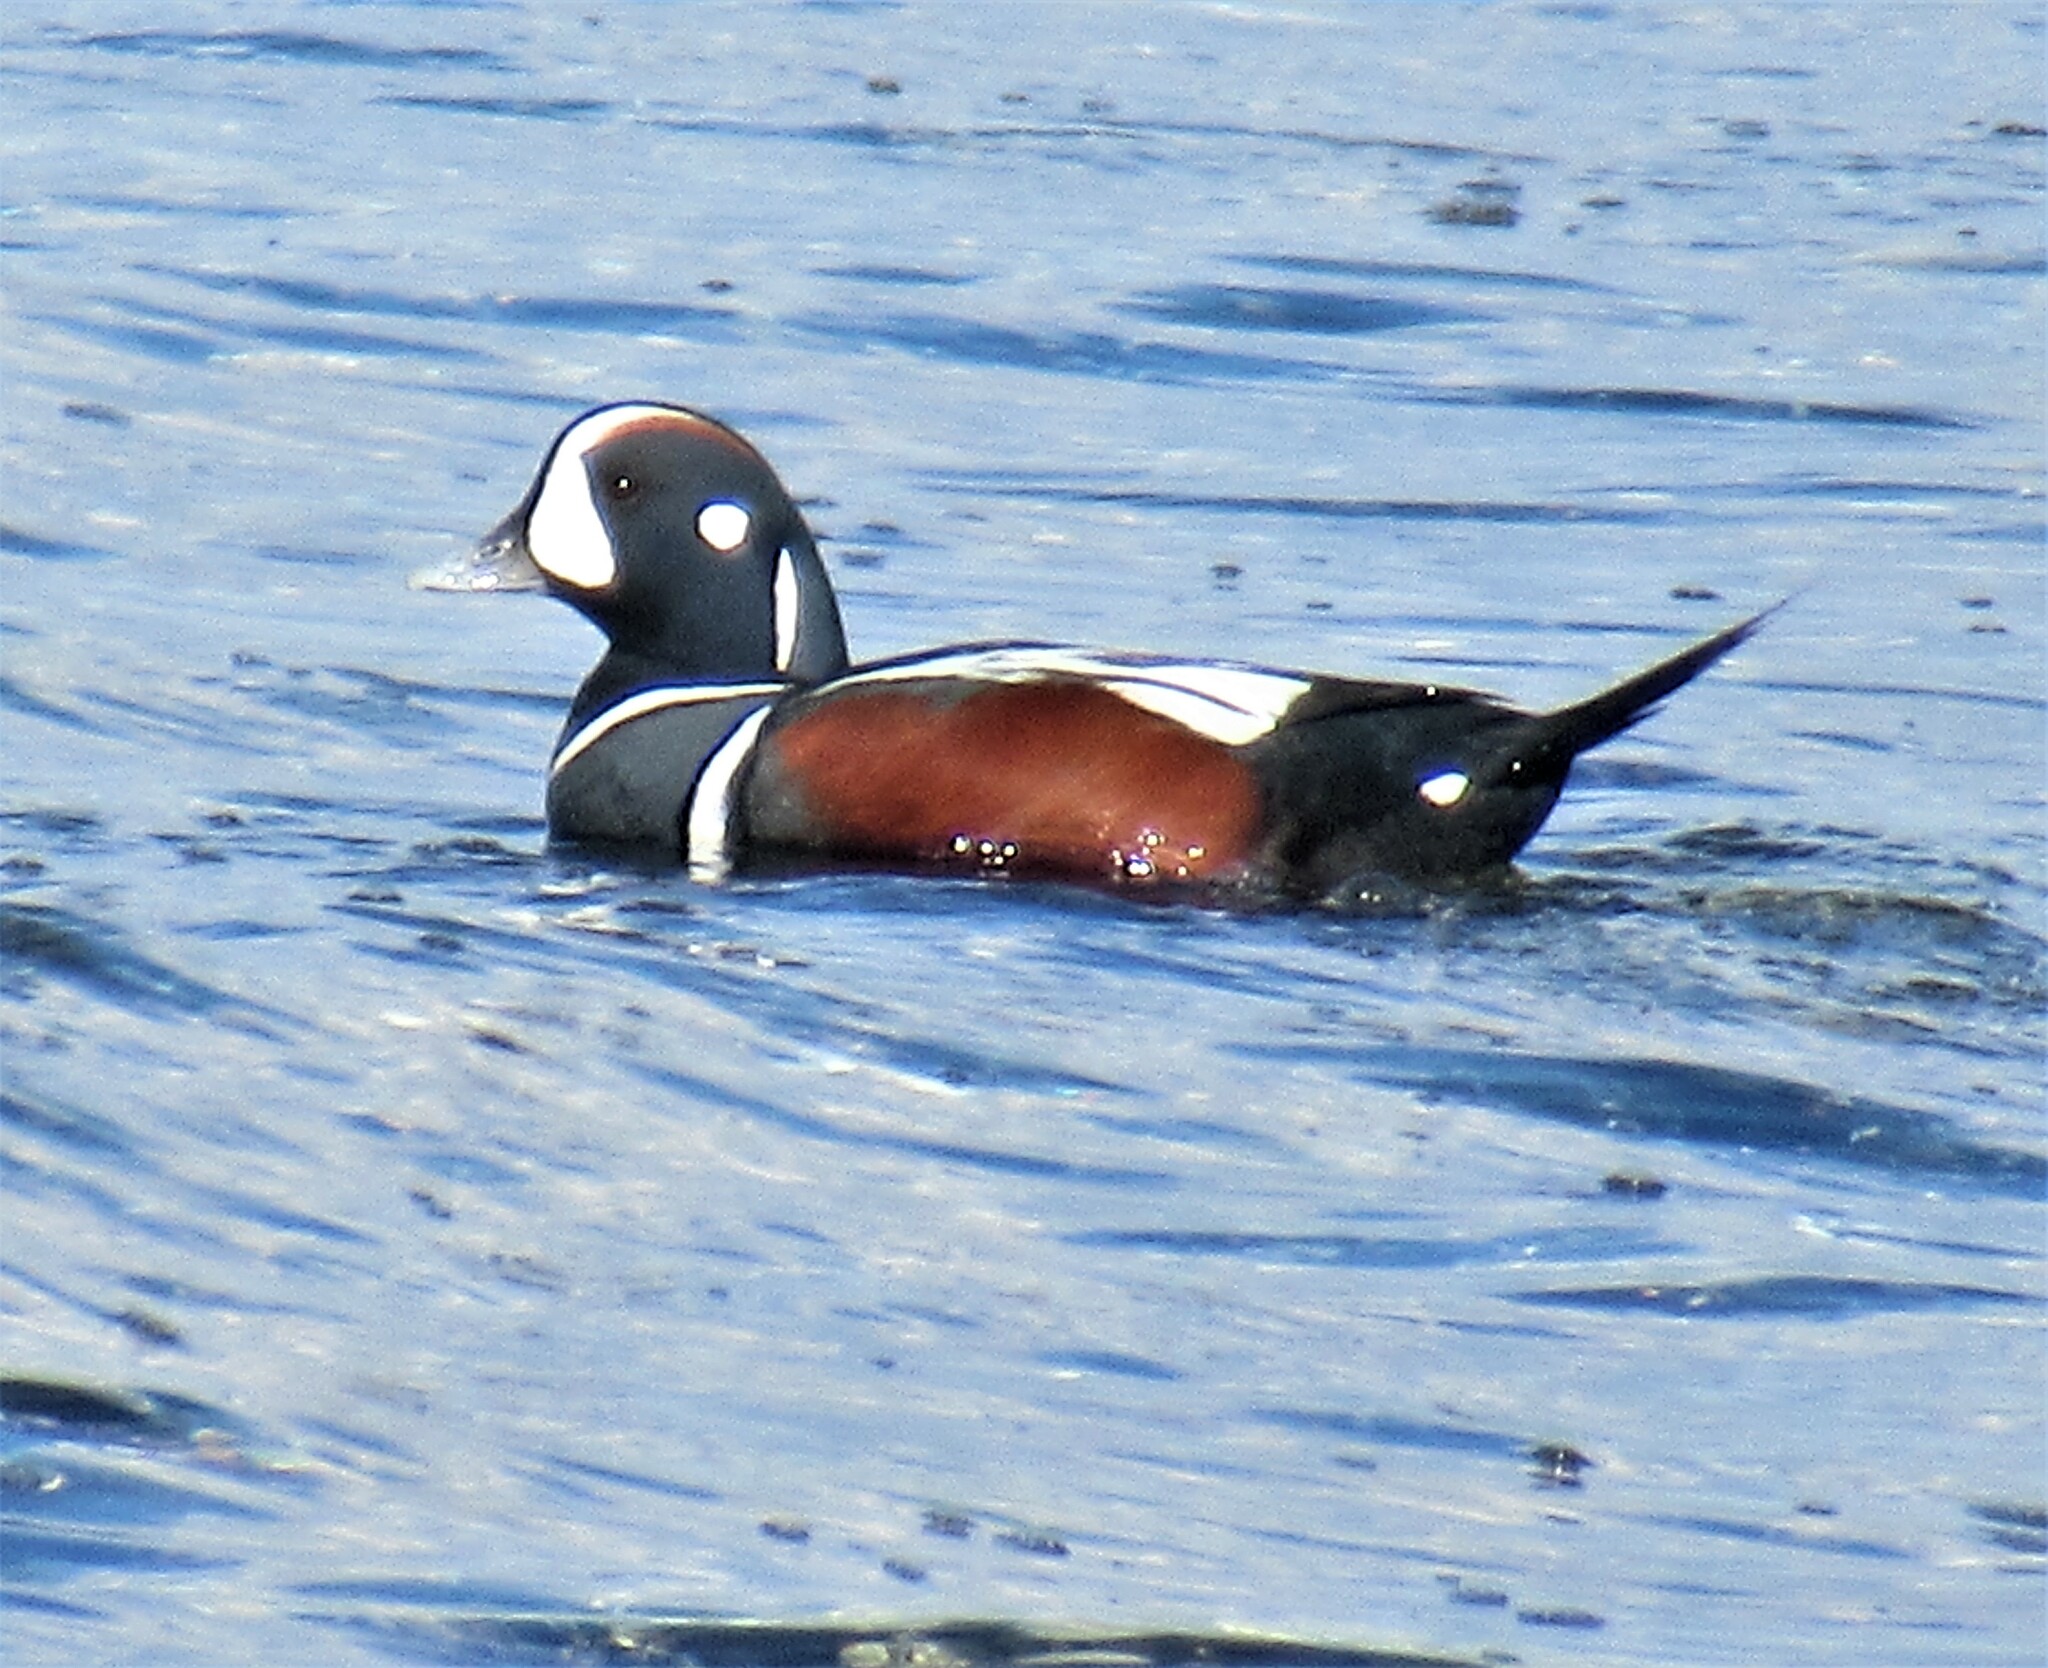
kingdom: Animalia
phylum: Chordata
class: Aves
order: Anseriformes
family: Anatidae
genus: Histrionicus
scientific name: Histrionicus histrionicus
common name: Harlequin duck
